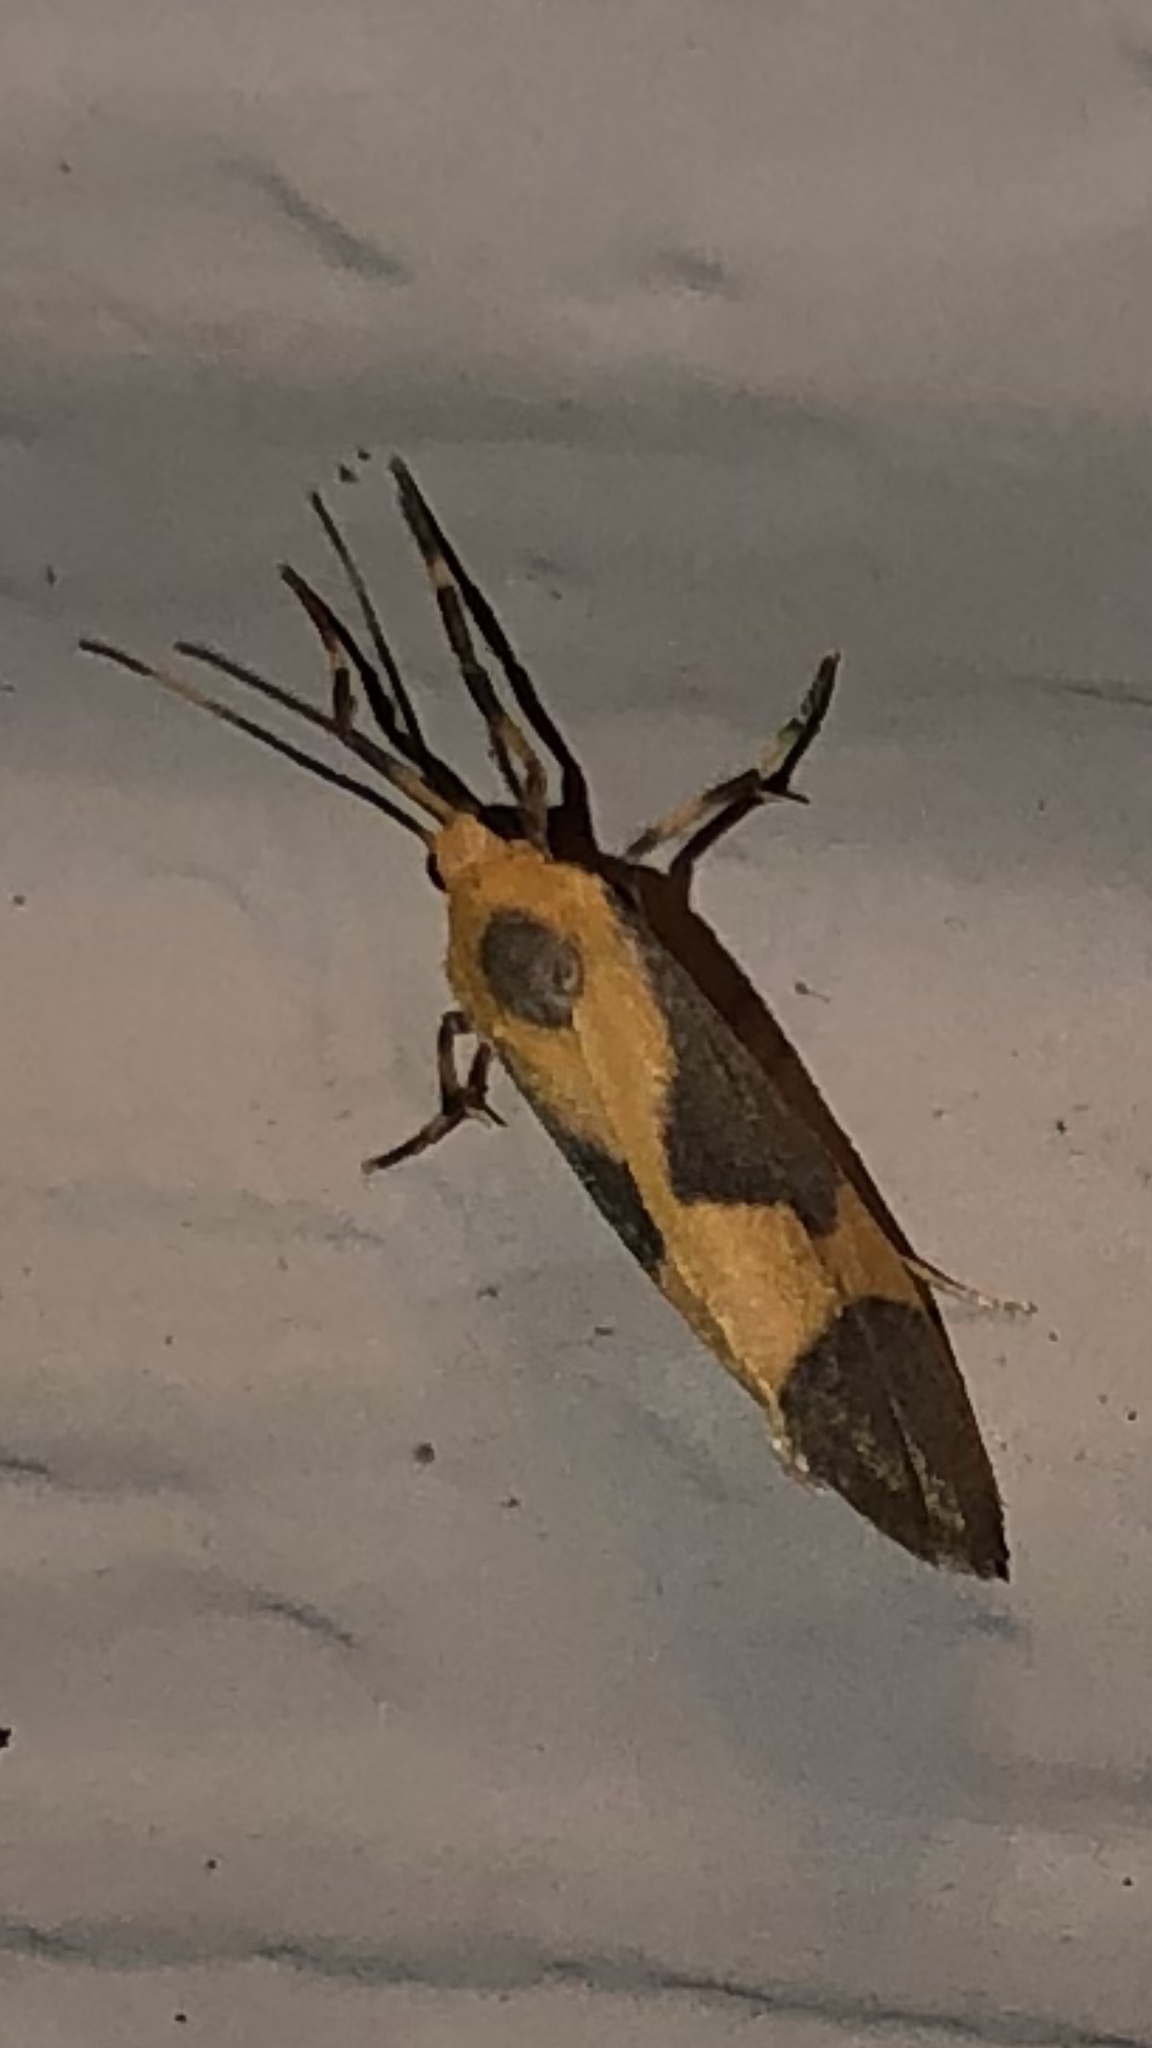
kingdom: Animalia
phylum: Arthropoda
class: Insecta
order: Lepidoptera
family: Erebidae
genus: Cisthene
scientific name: Cisthene unifascia
